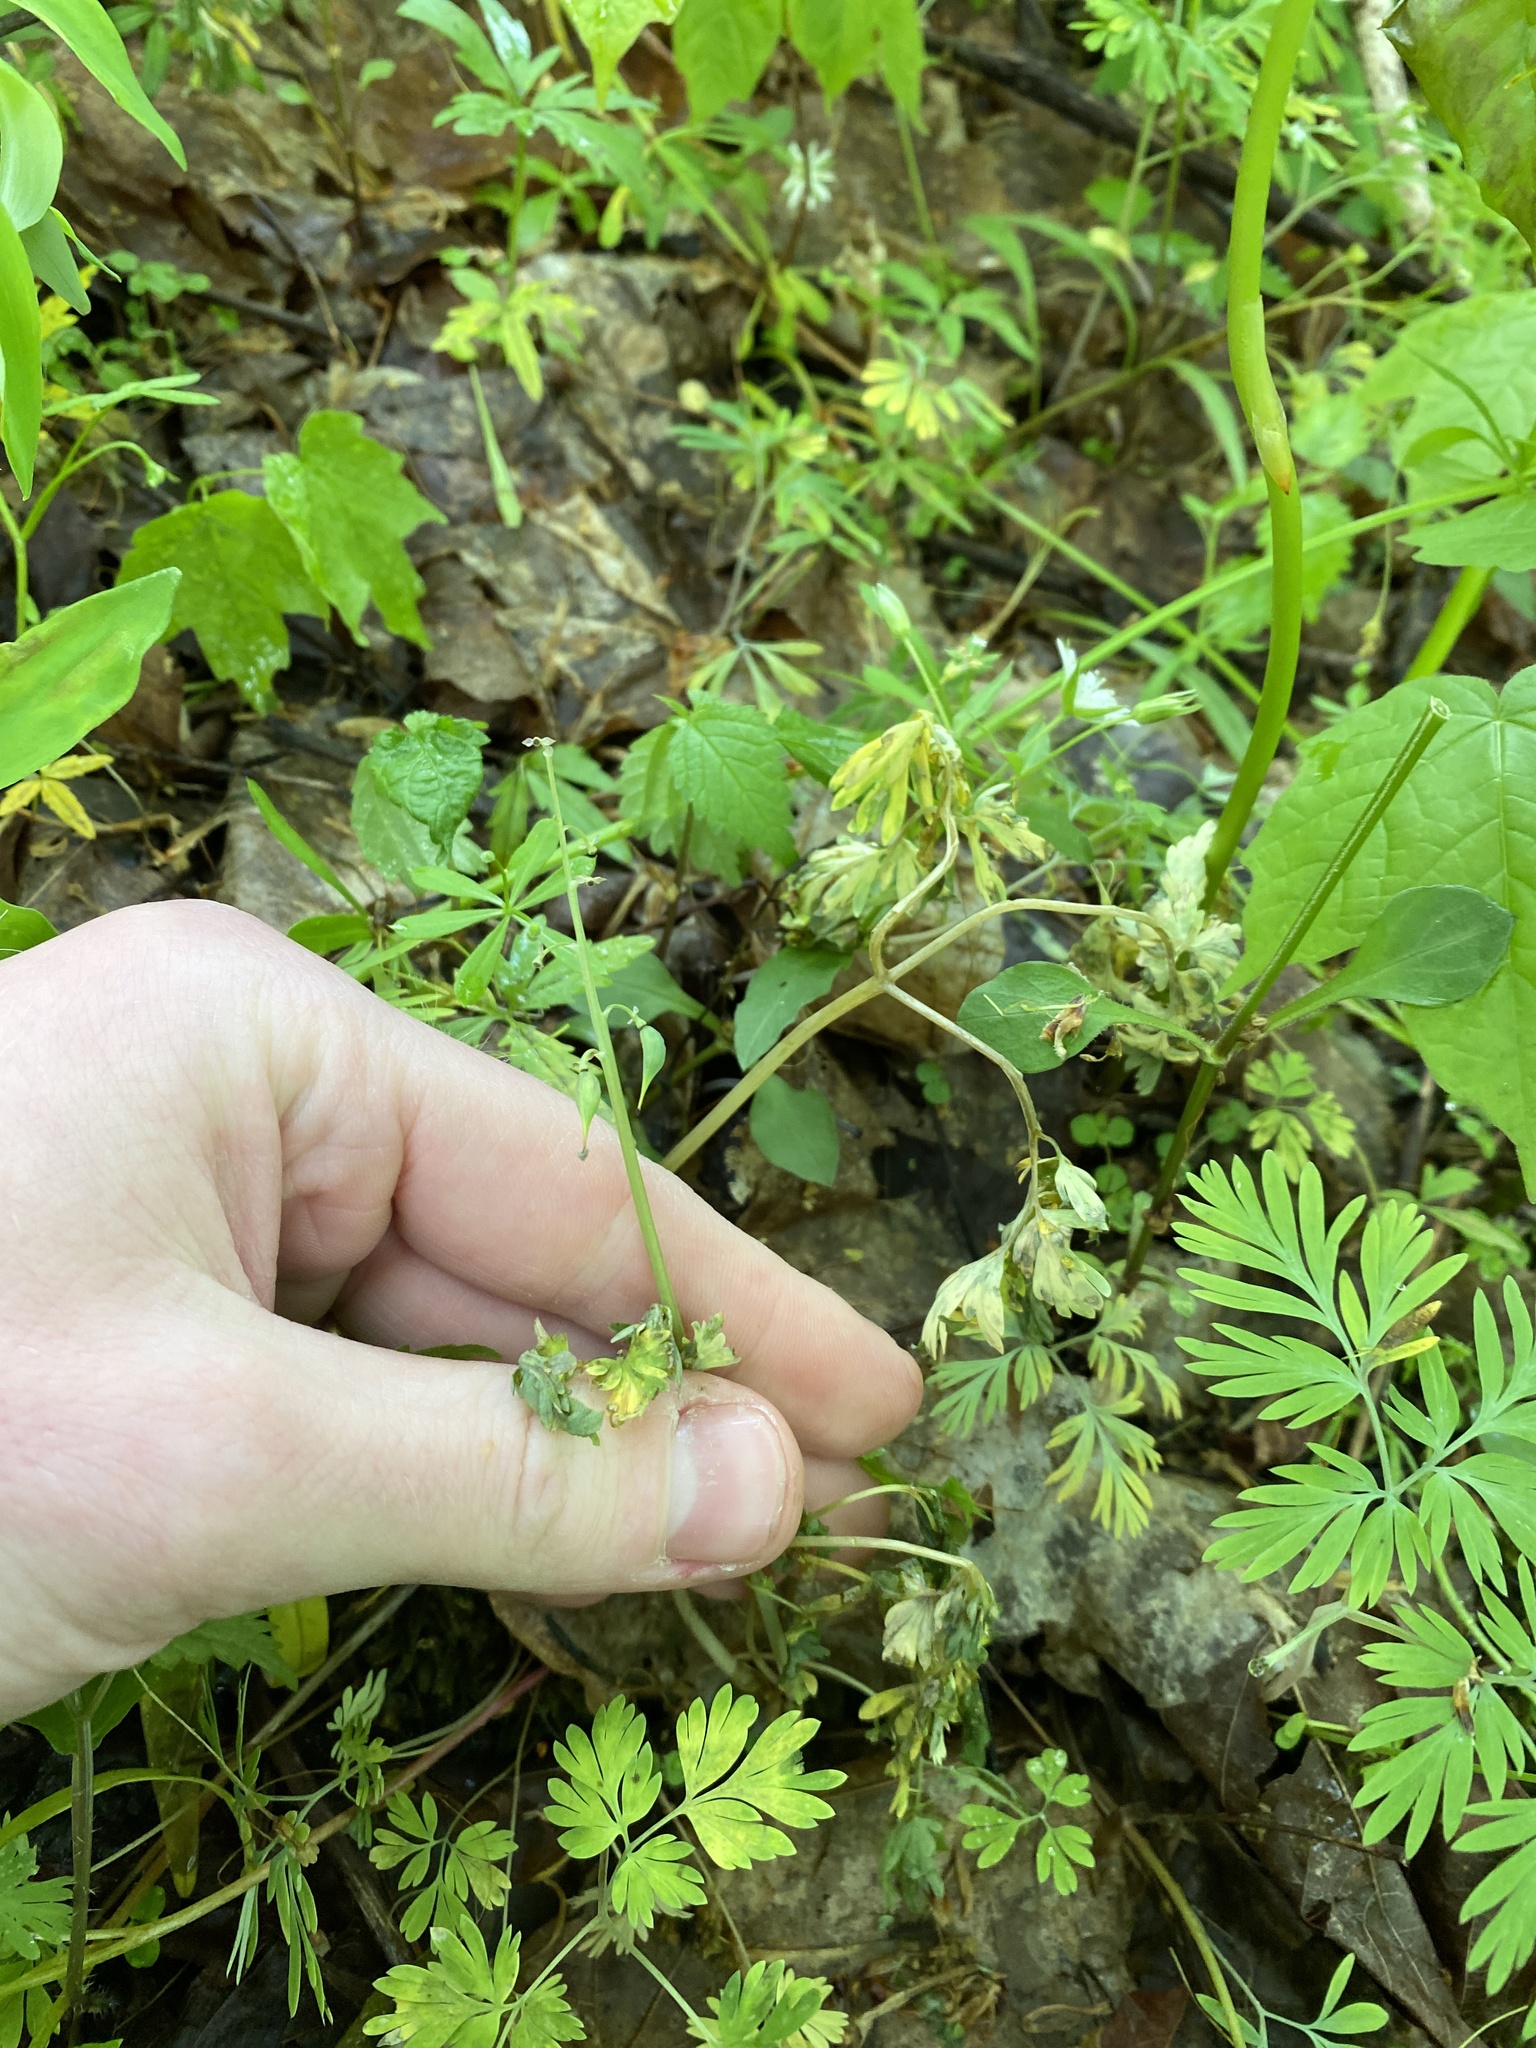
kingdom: Plantae
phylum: Tracheophyta
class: Magnoliopsida
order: Ranunculales
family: Papaveraceae
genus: Dicentra
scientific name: Dicentra cucullaria
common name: Dutchman's breeches
